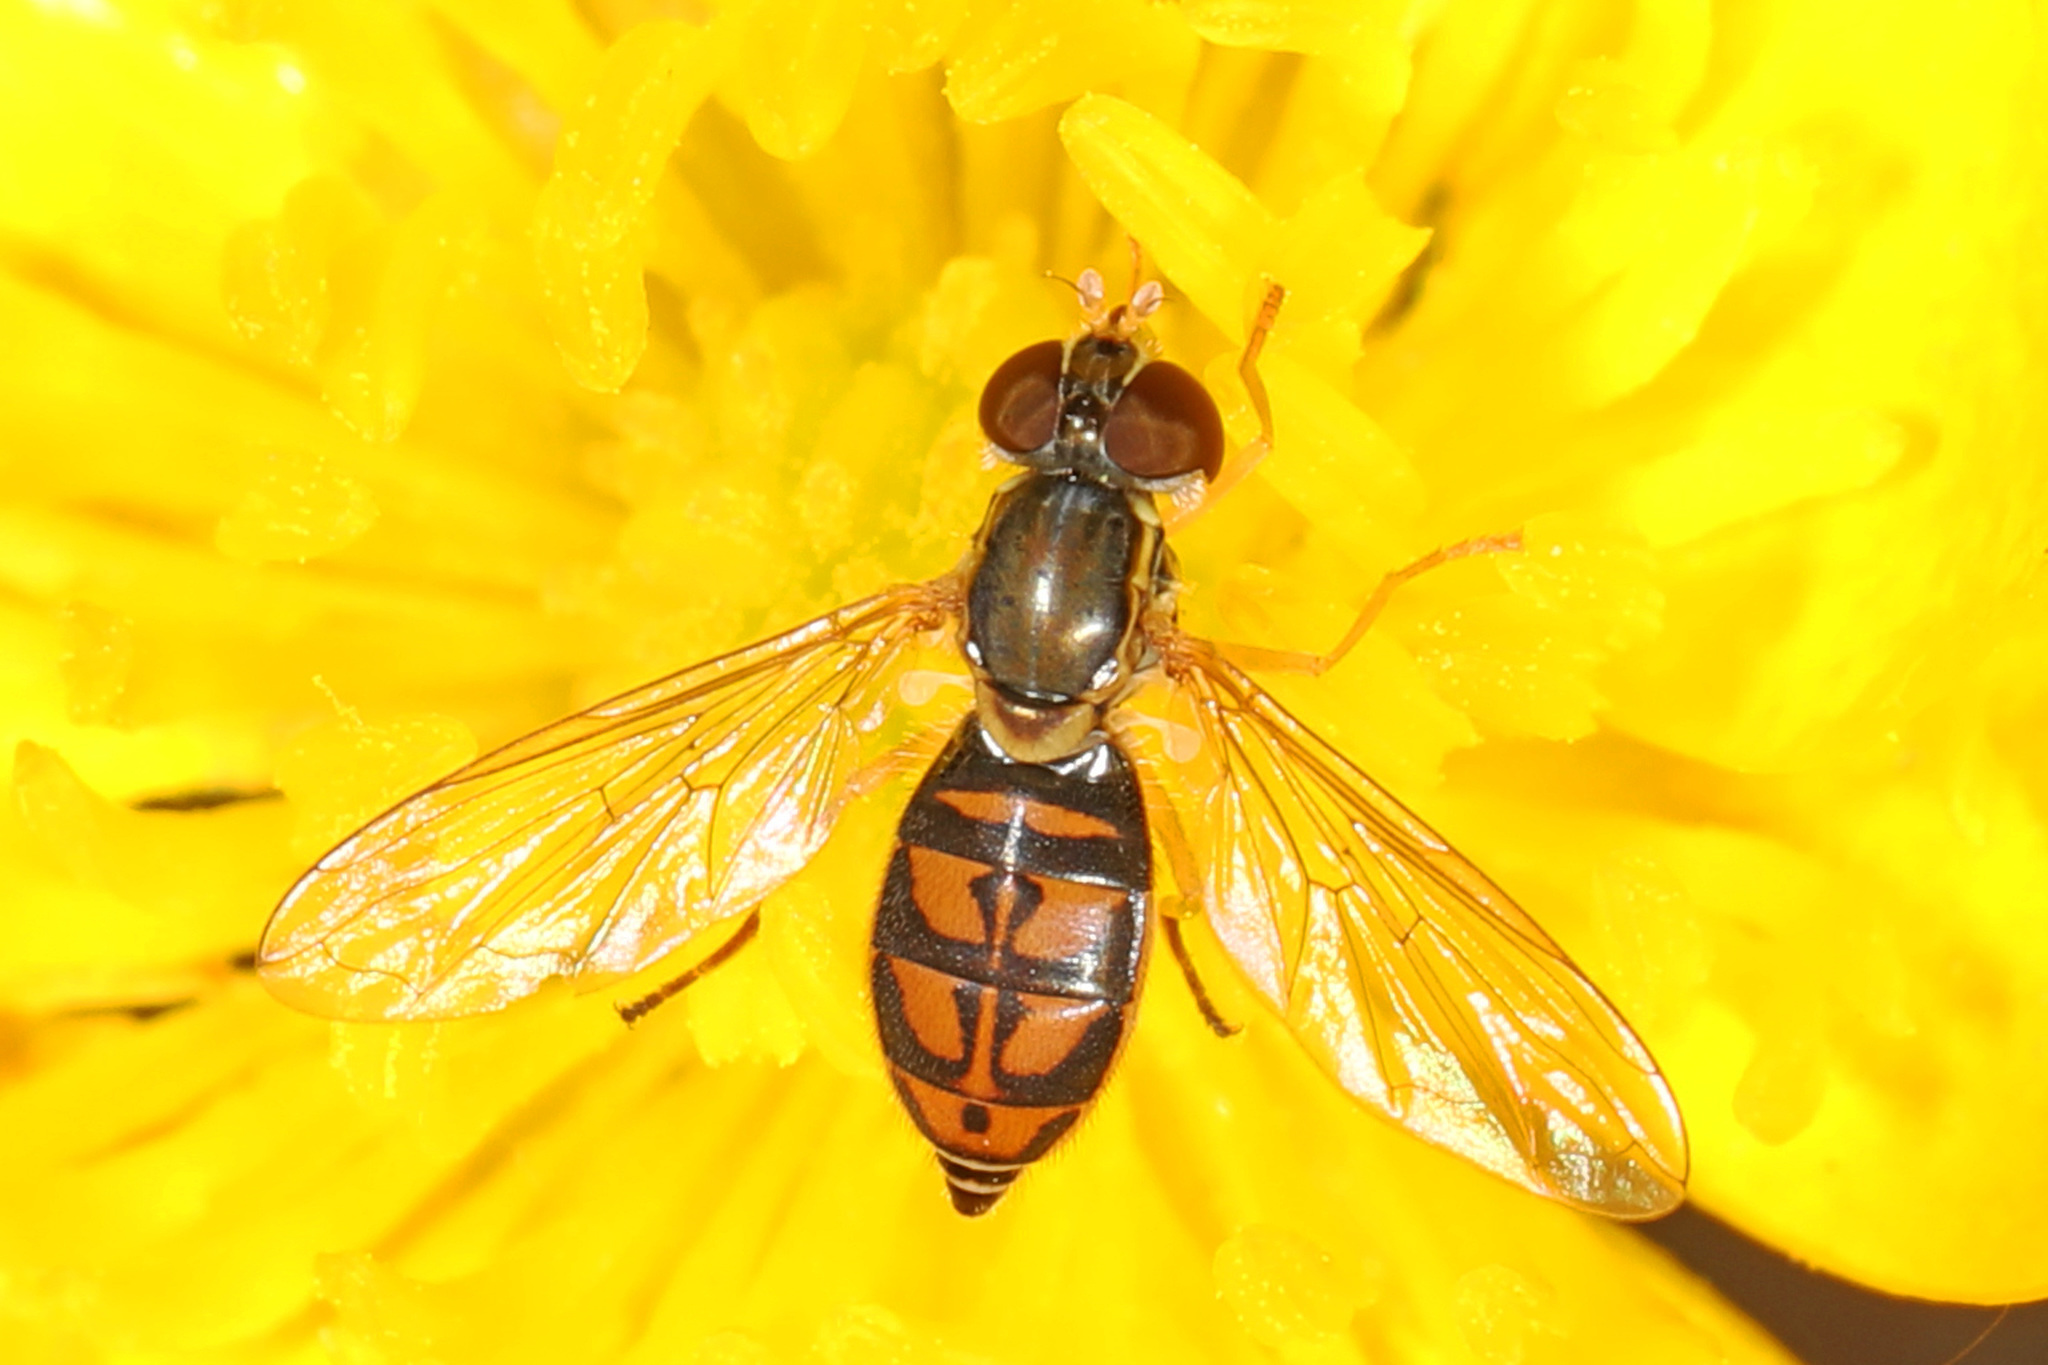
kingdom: Animalia
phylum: Arthropoda
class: Insecta
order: Diptera
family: Syrphidae
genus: Toxomerus
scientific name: Toxomerus marginatus
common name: Syrphid fly
